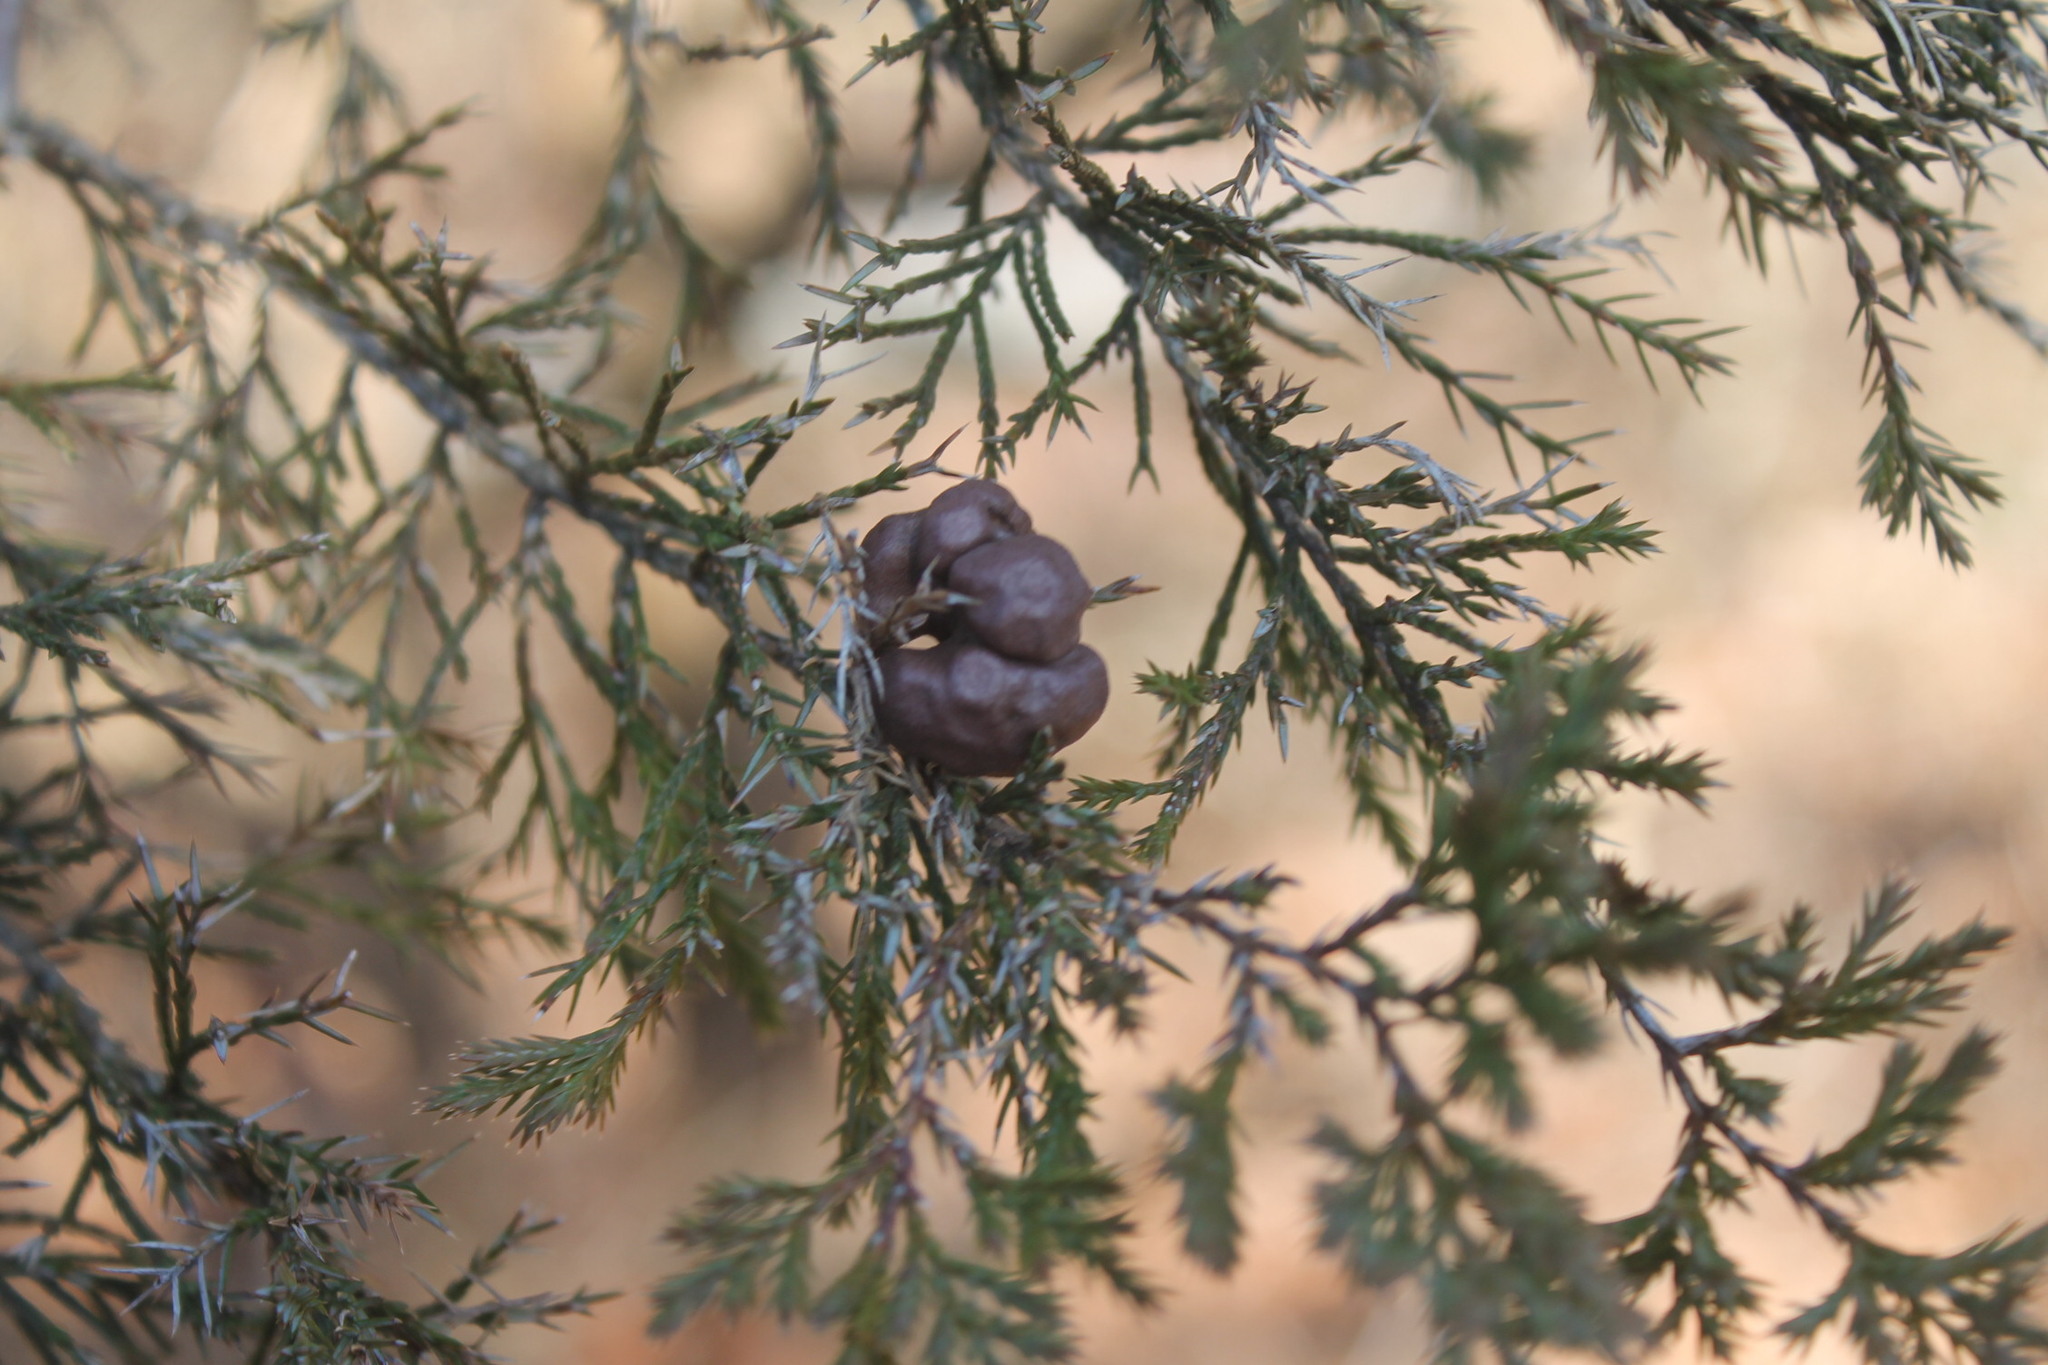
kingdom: Fungi
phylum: Basidiomycota
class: Pucciniomycetes
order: Pucciniales
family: Gymnosporangiaceae
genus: Gymnosporangium
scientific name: Gymnosporangium juniperi-virginianae
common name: Juniper-apple rust
